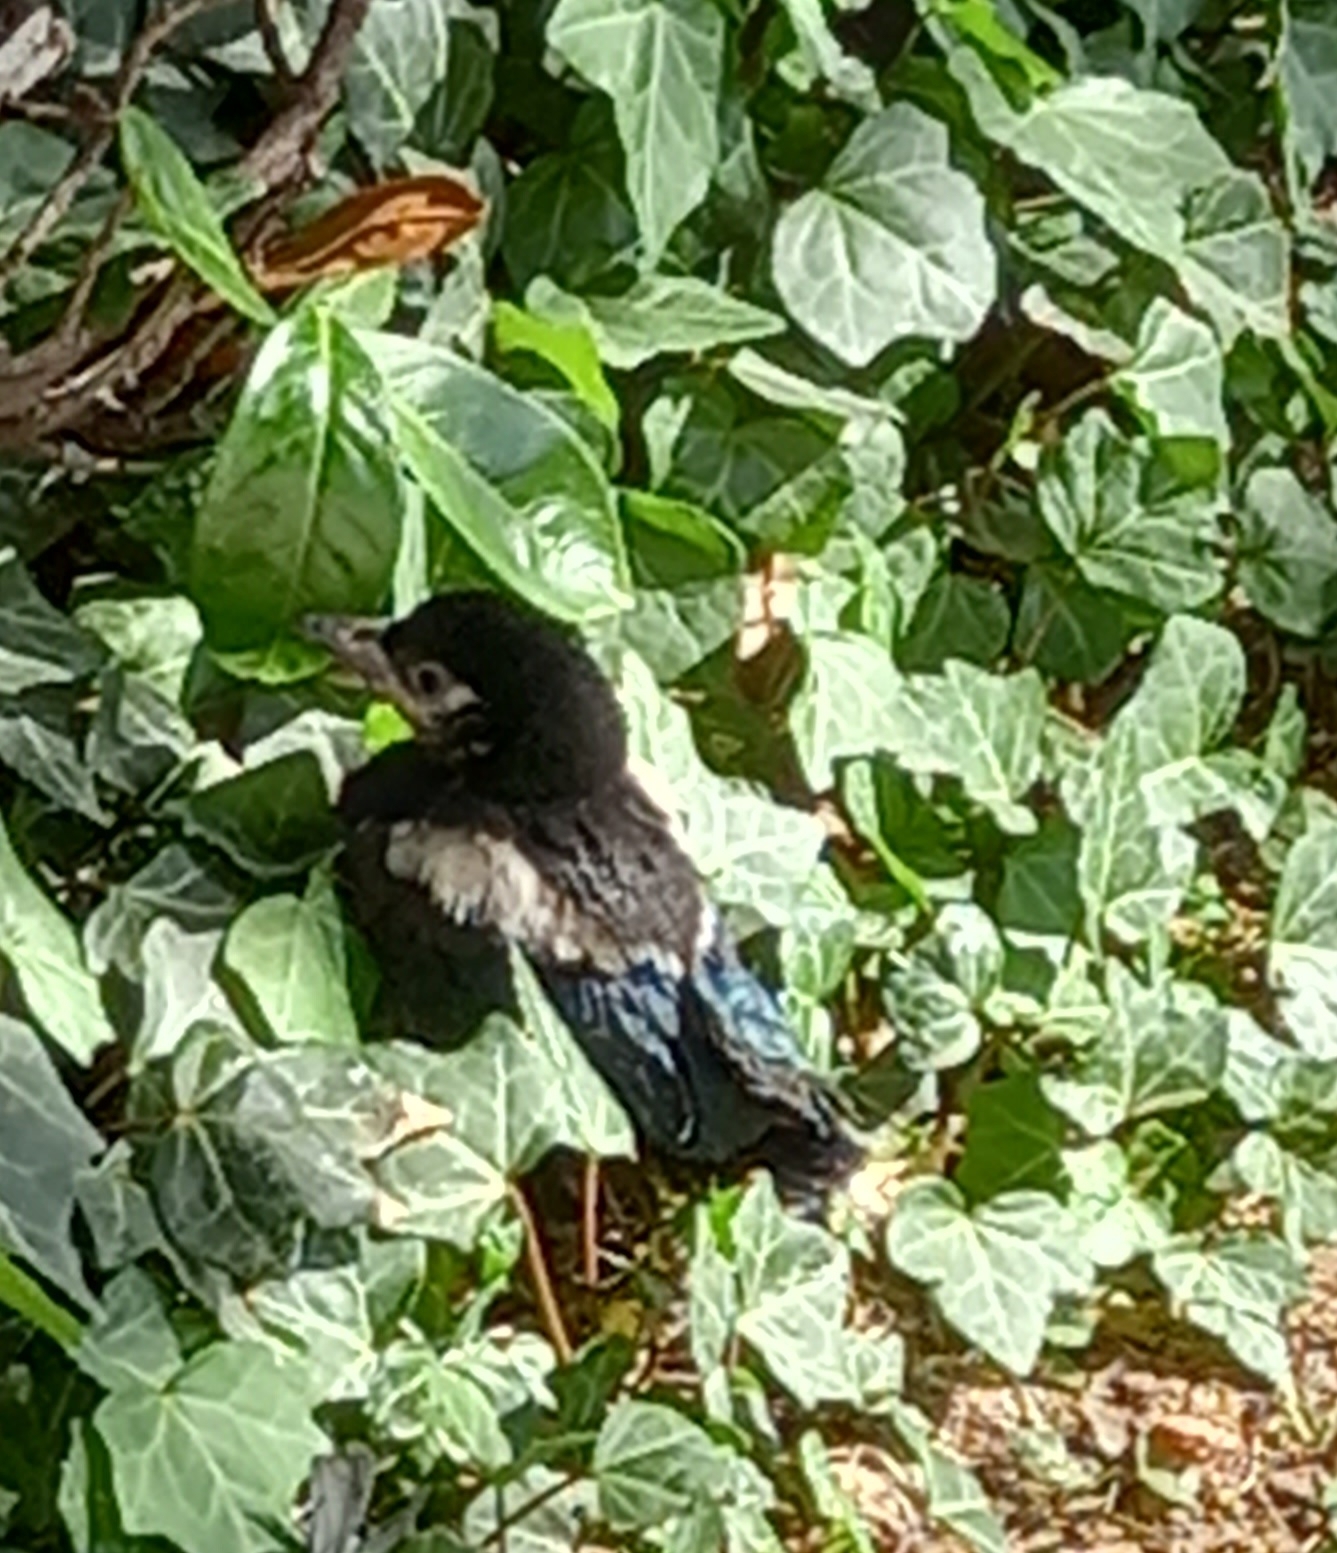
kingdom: Animalia
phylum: Chordata
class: Aves
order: Passeriformes
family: Corvidae
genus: Pica
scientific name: Pica pica
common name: Eurasian magpie
